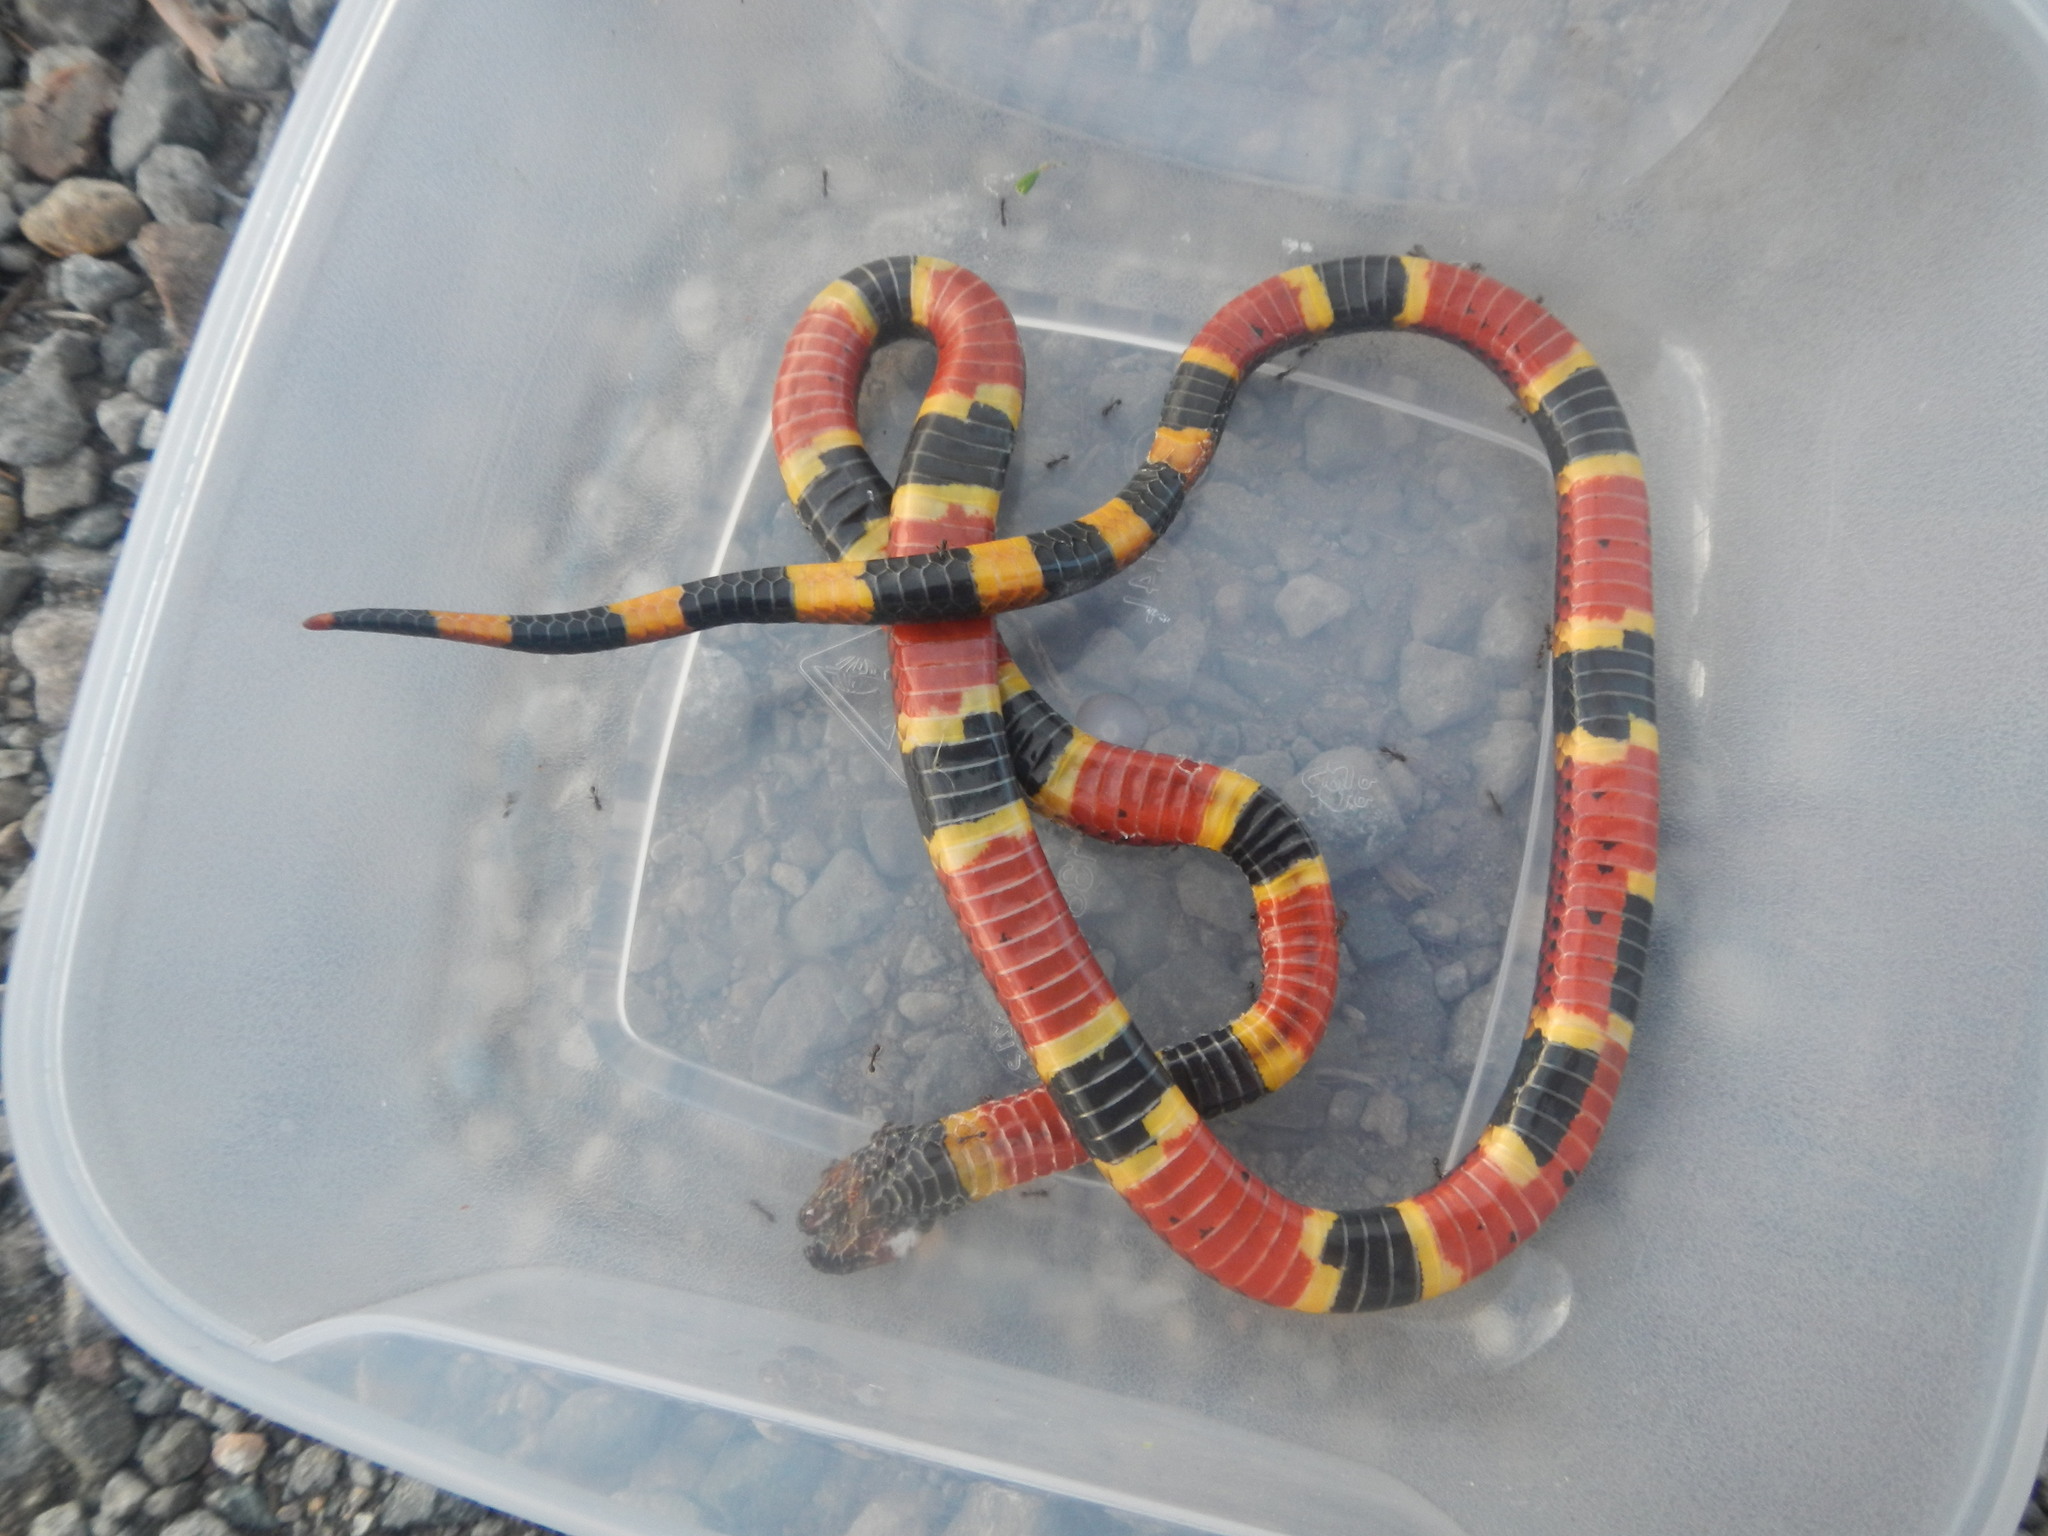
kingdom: Animalia
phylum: Chordata
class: Squamata
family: Elapidae
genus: Micrurus
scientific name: Micrurus nigrocinctus
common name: Babaspul [babaspul]
